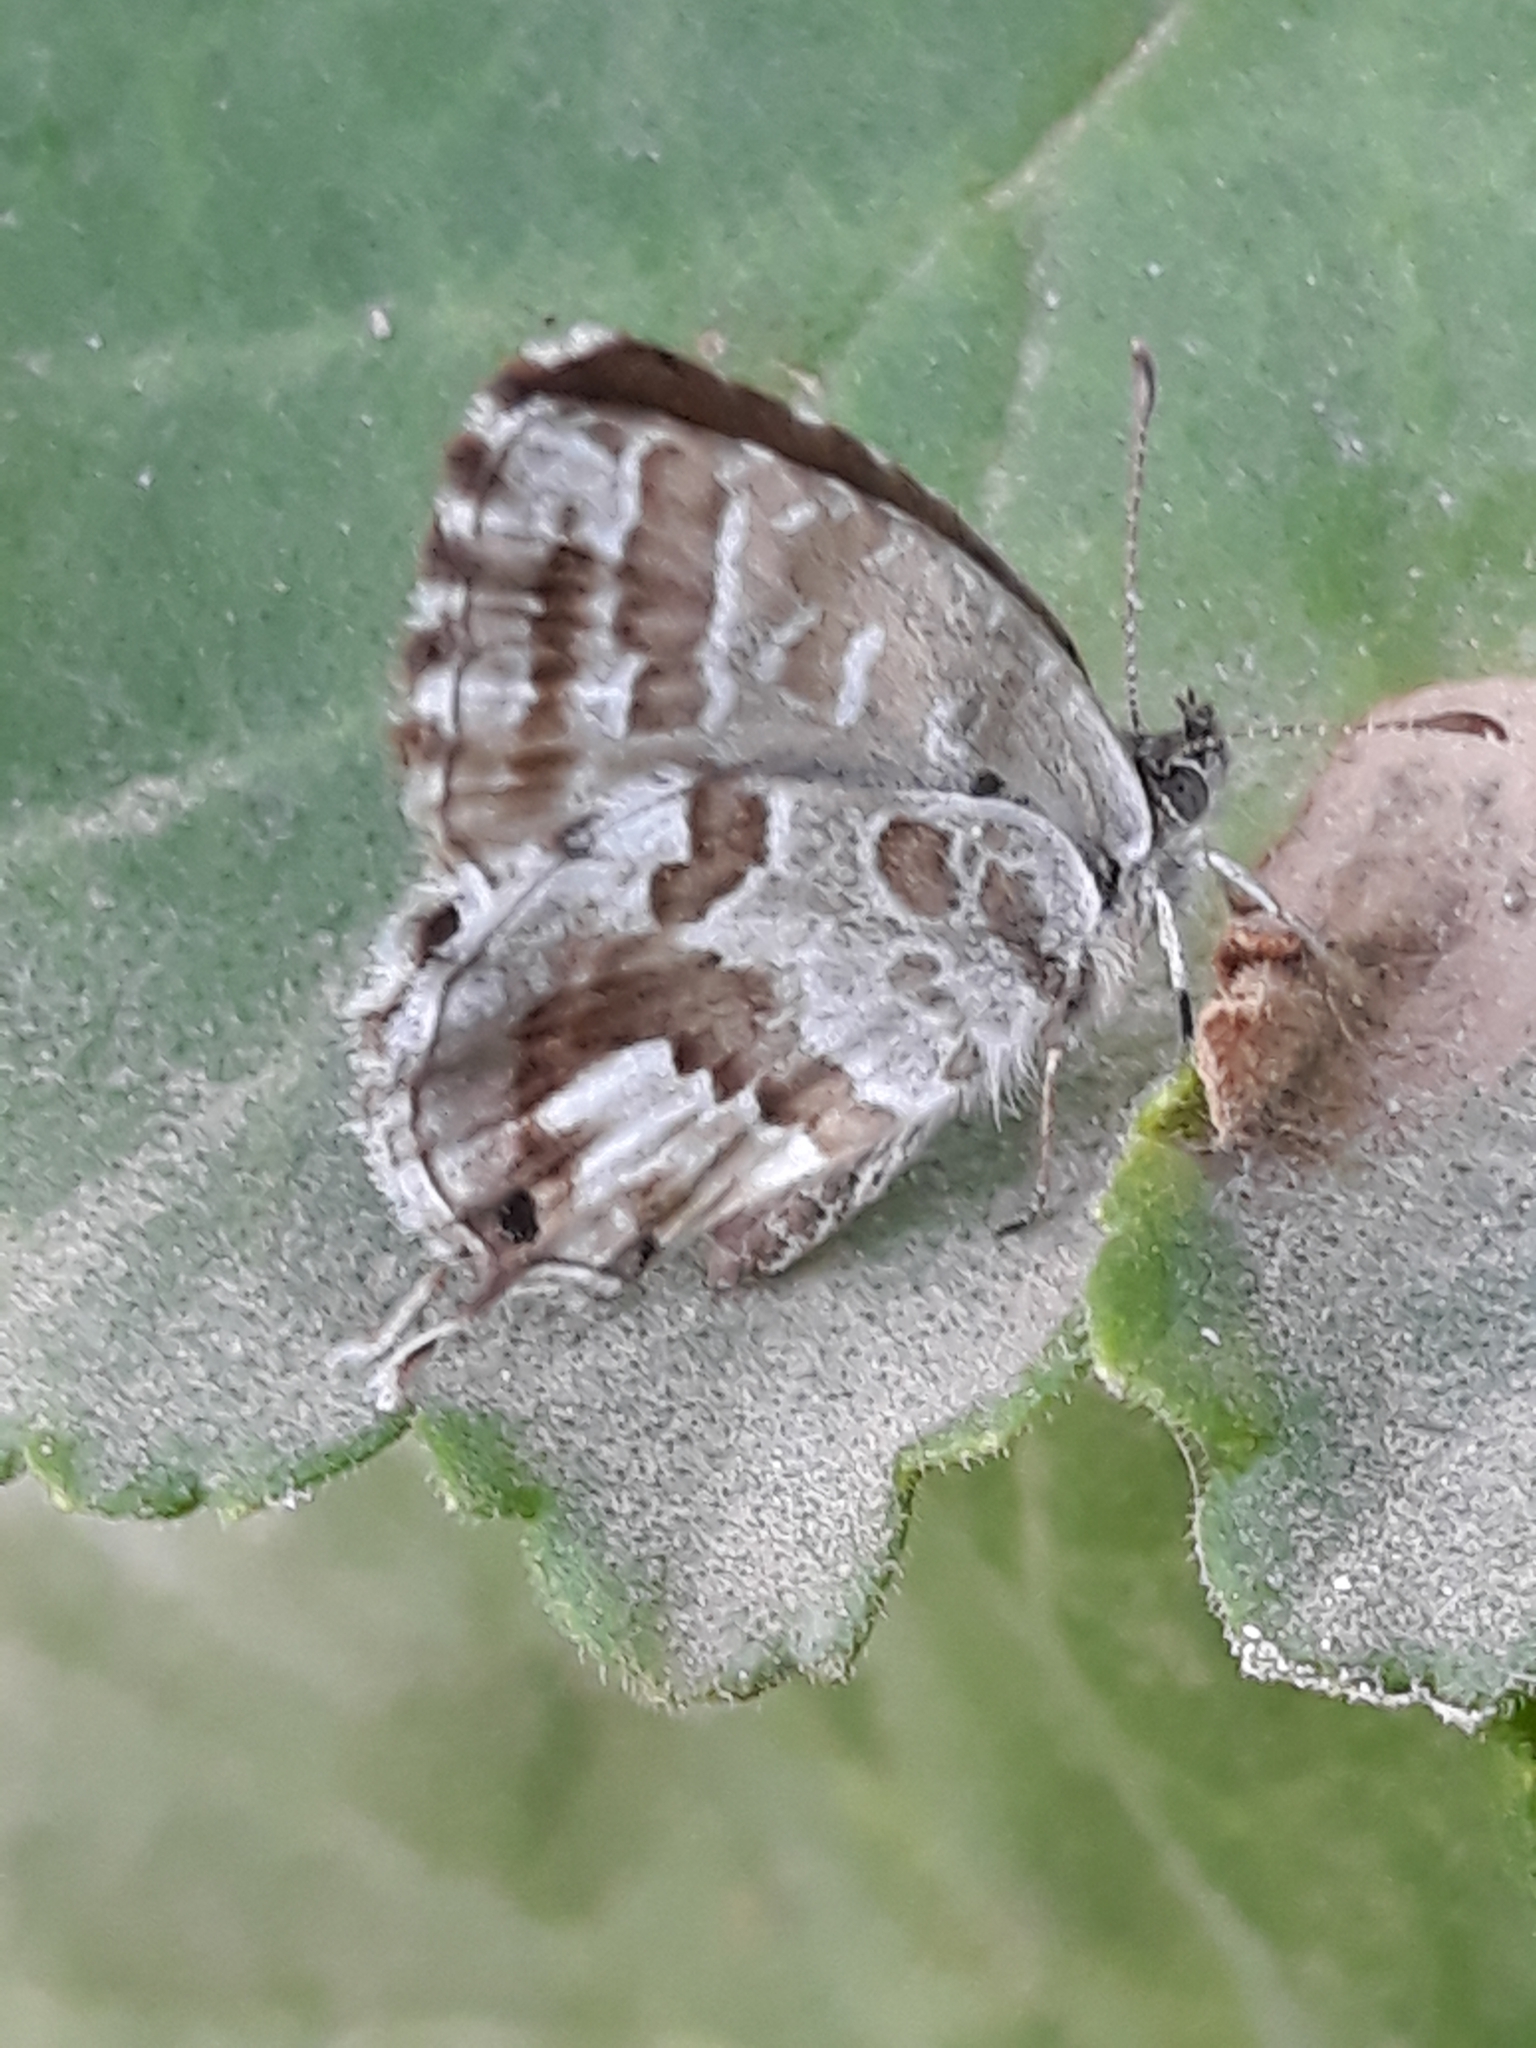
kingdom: Animalia
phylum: Arthropoda
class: Insecta
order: Lepidoptera
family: Lycaenidae
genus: Cacyreus
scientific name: Cacyreus marshalli
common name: Geranium bronze
